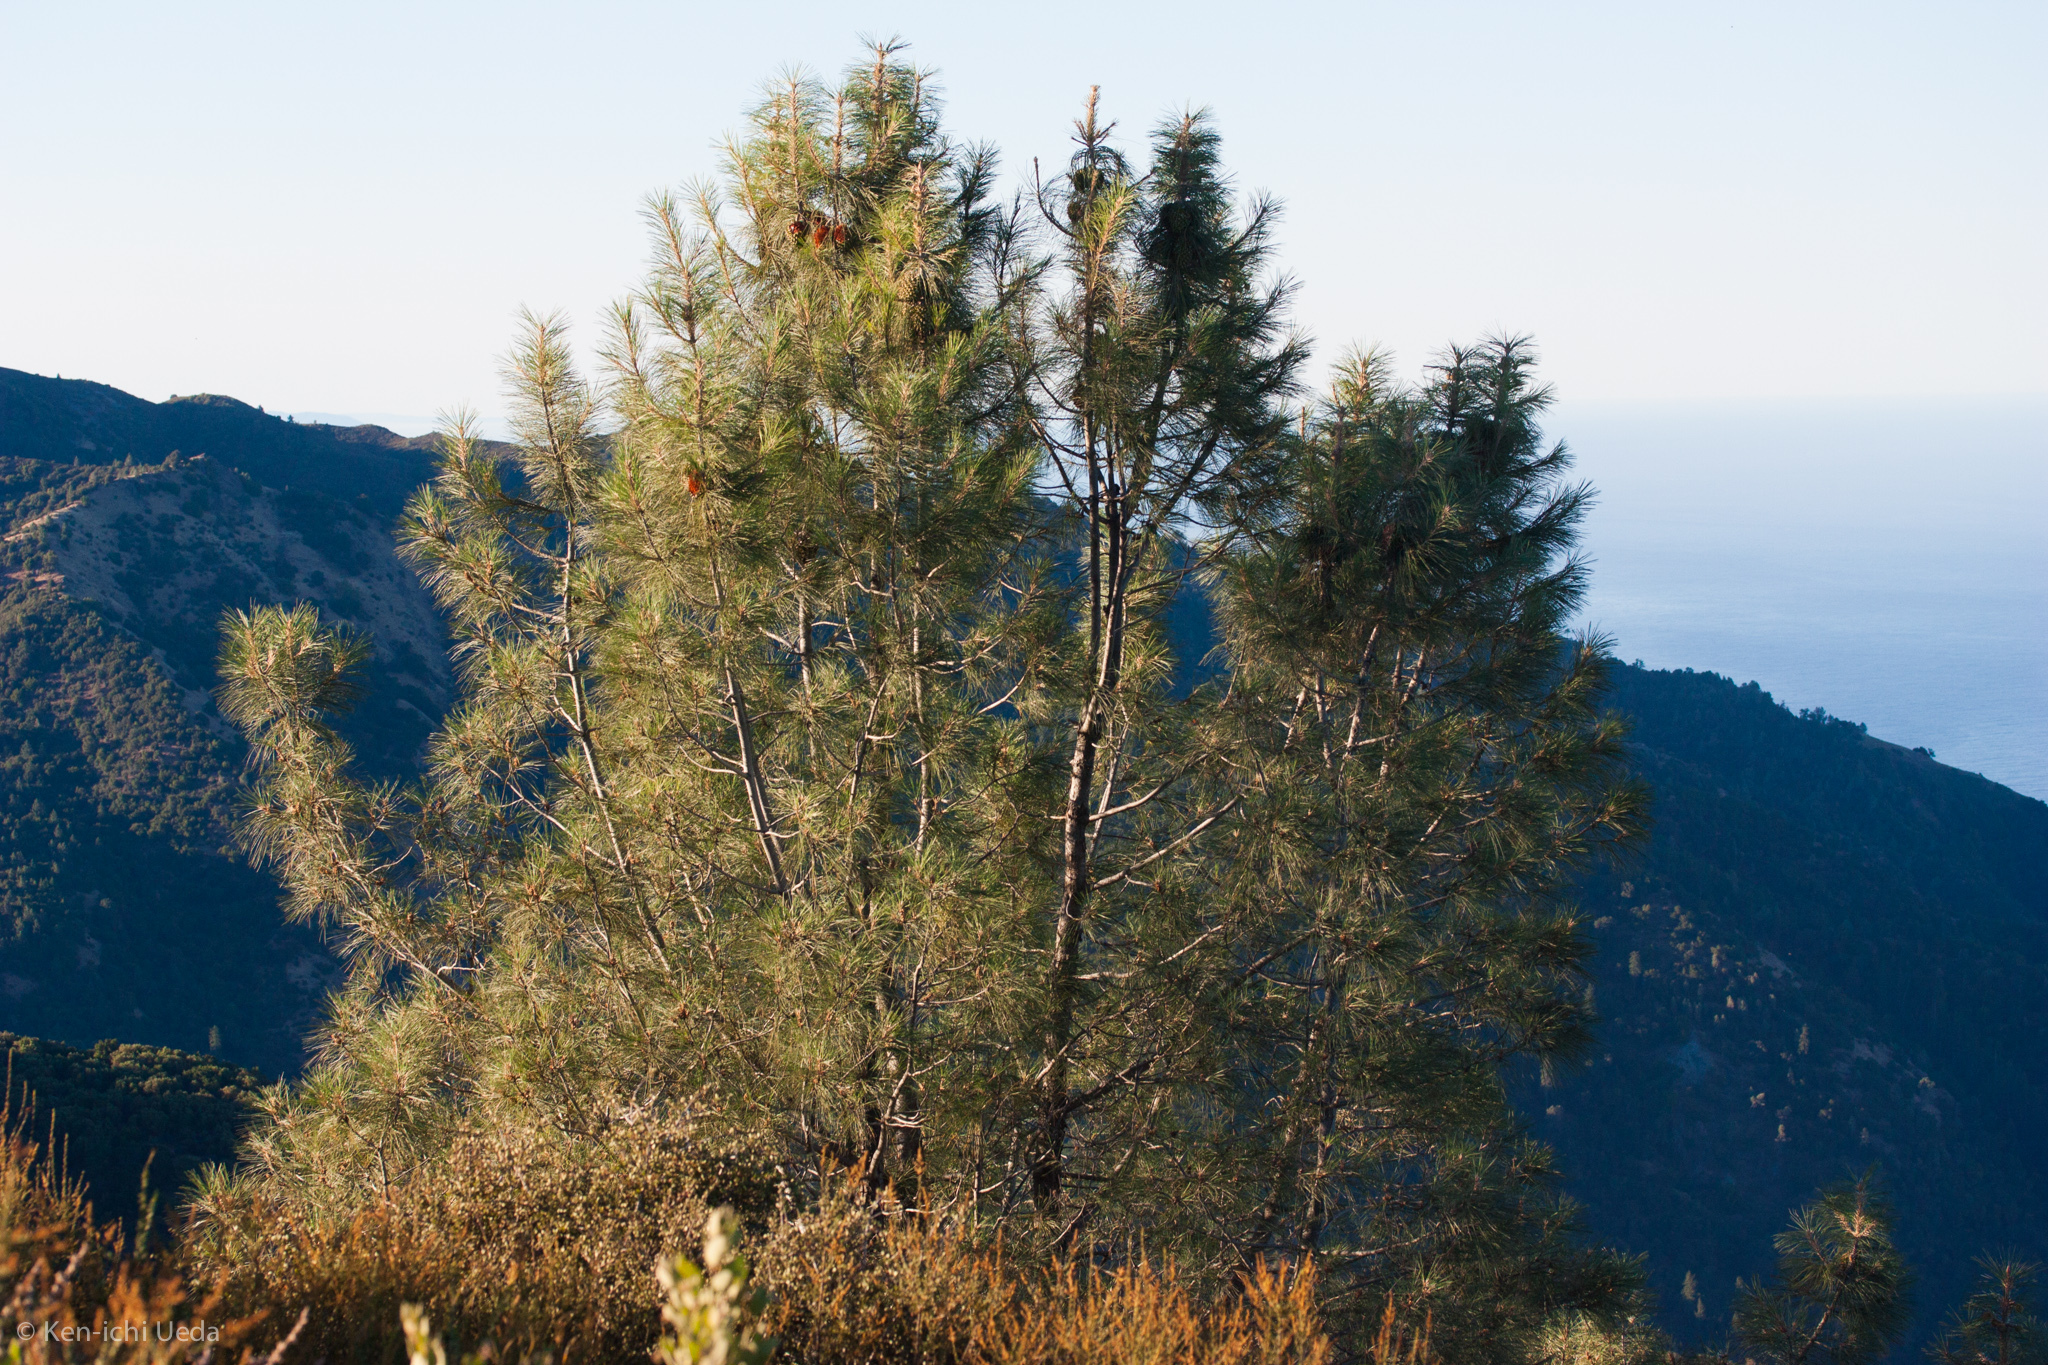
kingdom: Plantae
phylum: Tracheophyta
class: Pinopsida
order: Pinales
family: Pinaceae
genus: Pinus
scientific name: Pinus sabiniana
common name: Bull pine
